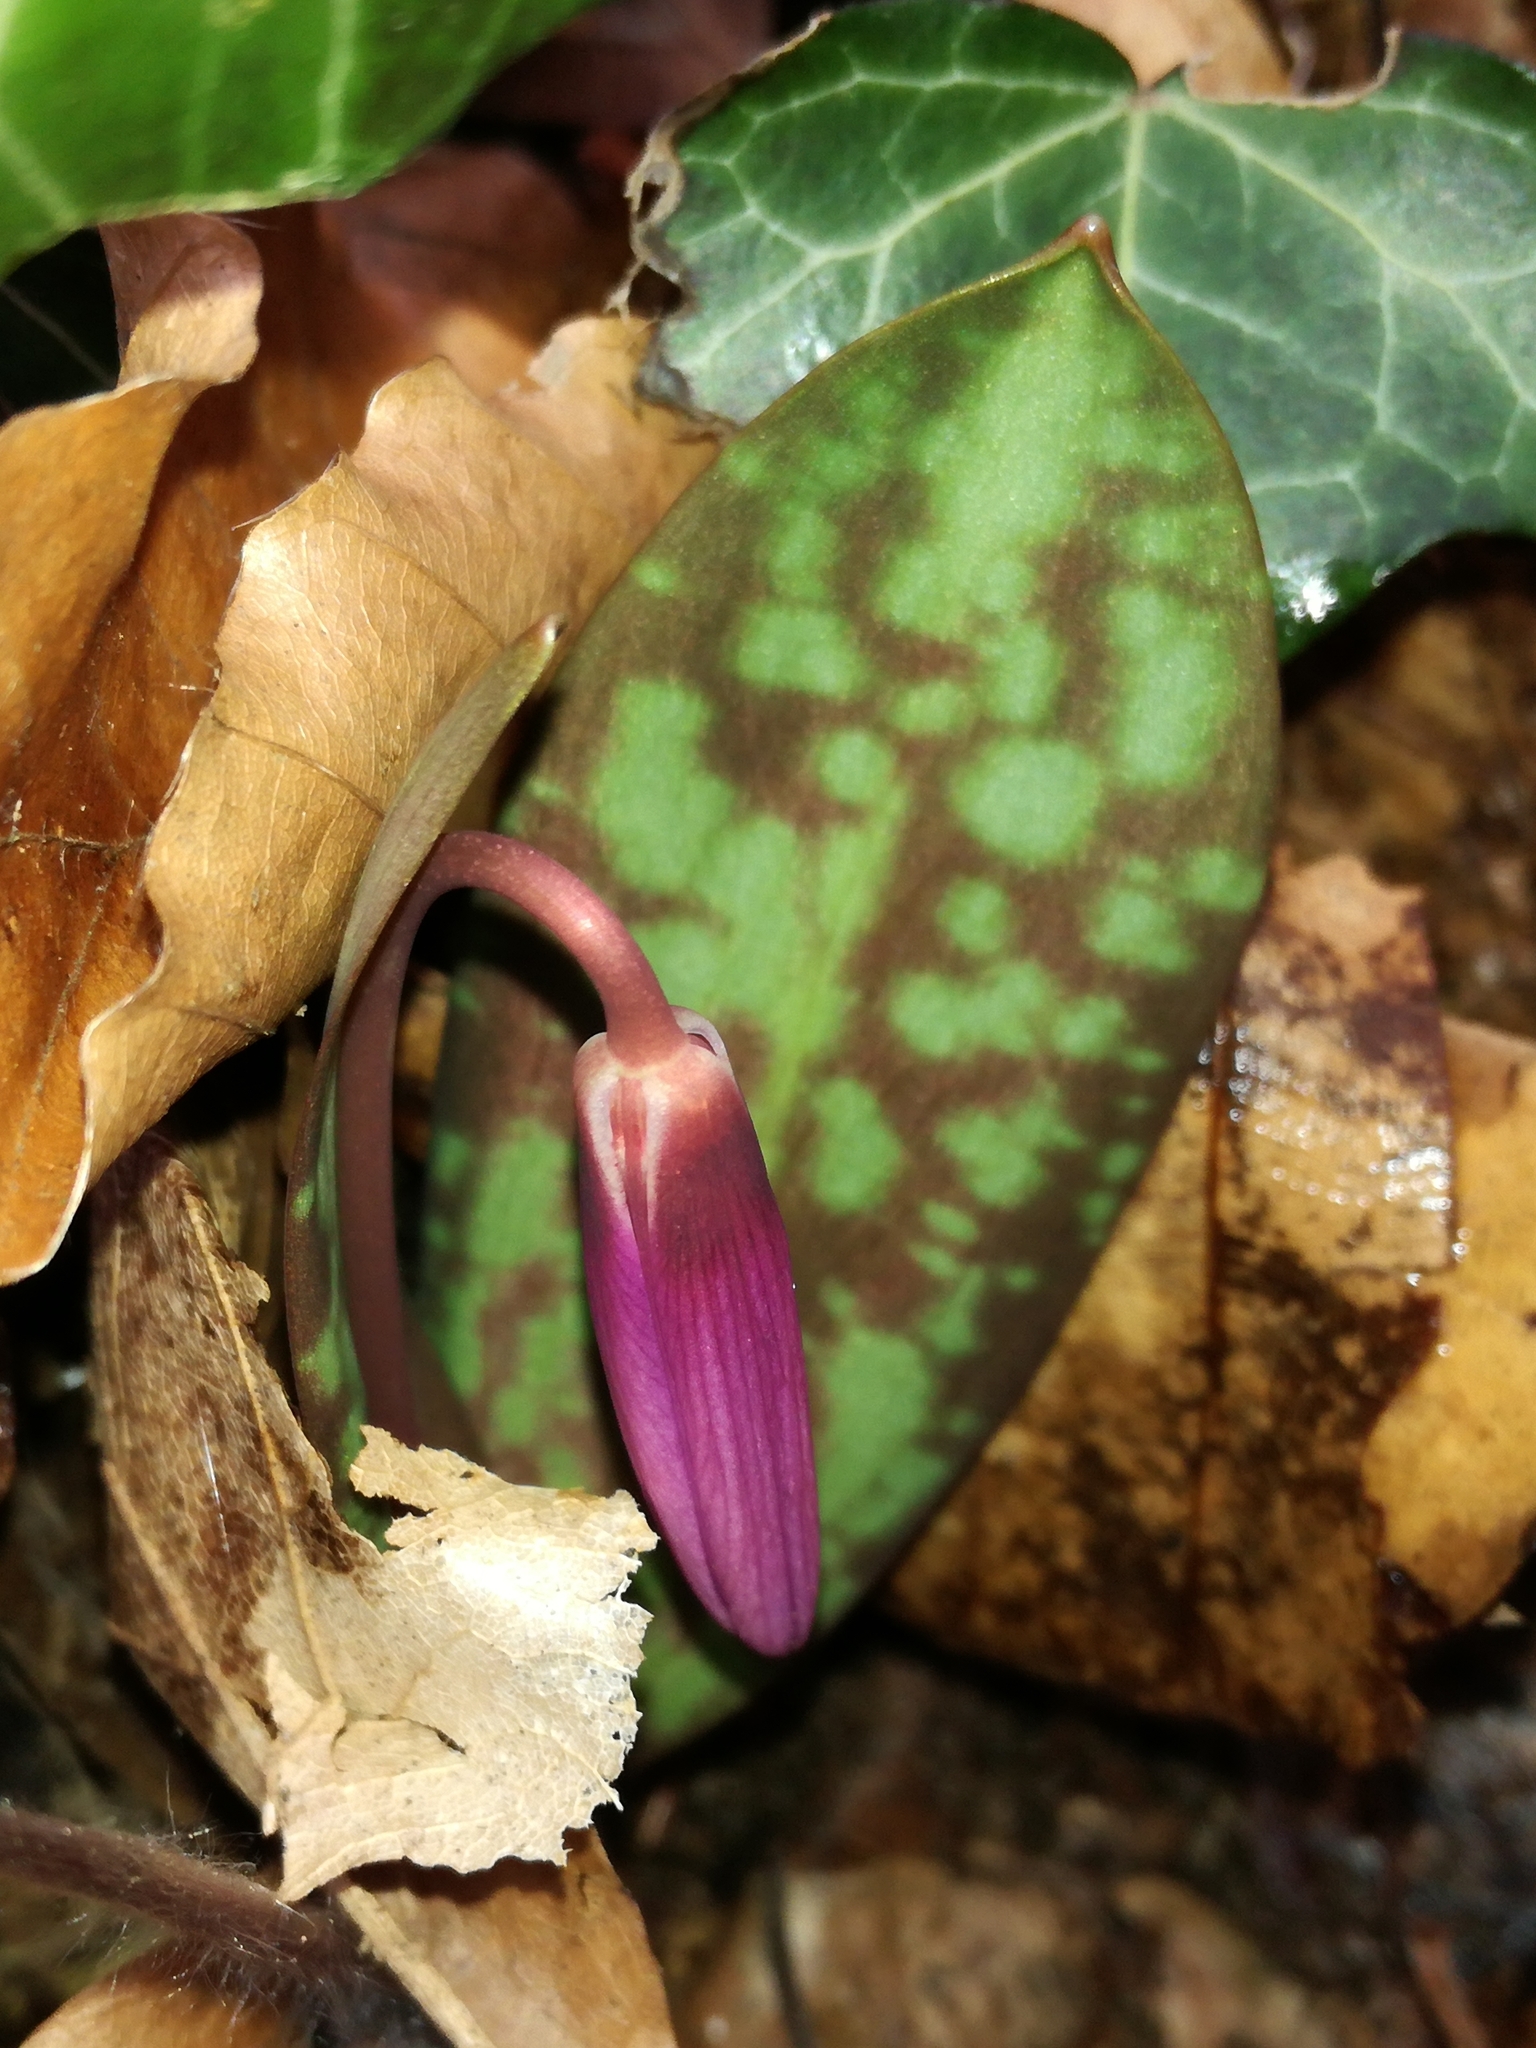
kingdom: Plantae
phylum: Tracheophyta
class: Liliopsida
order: Liliales
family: Liliaceae
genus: Erythronium
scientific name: Erythronium dens-canis
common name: Dog's-tooth-violet
